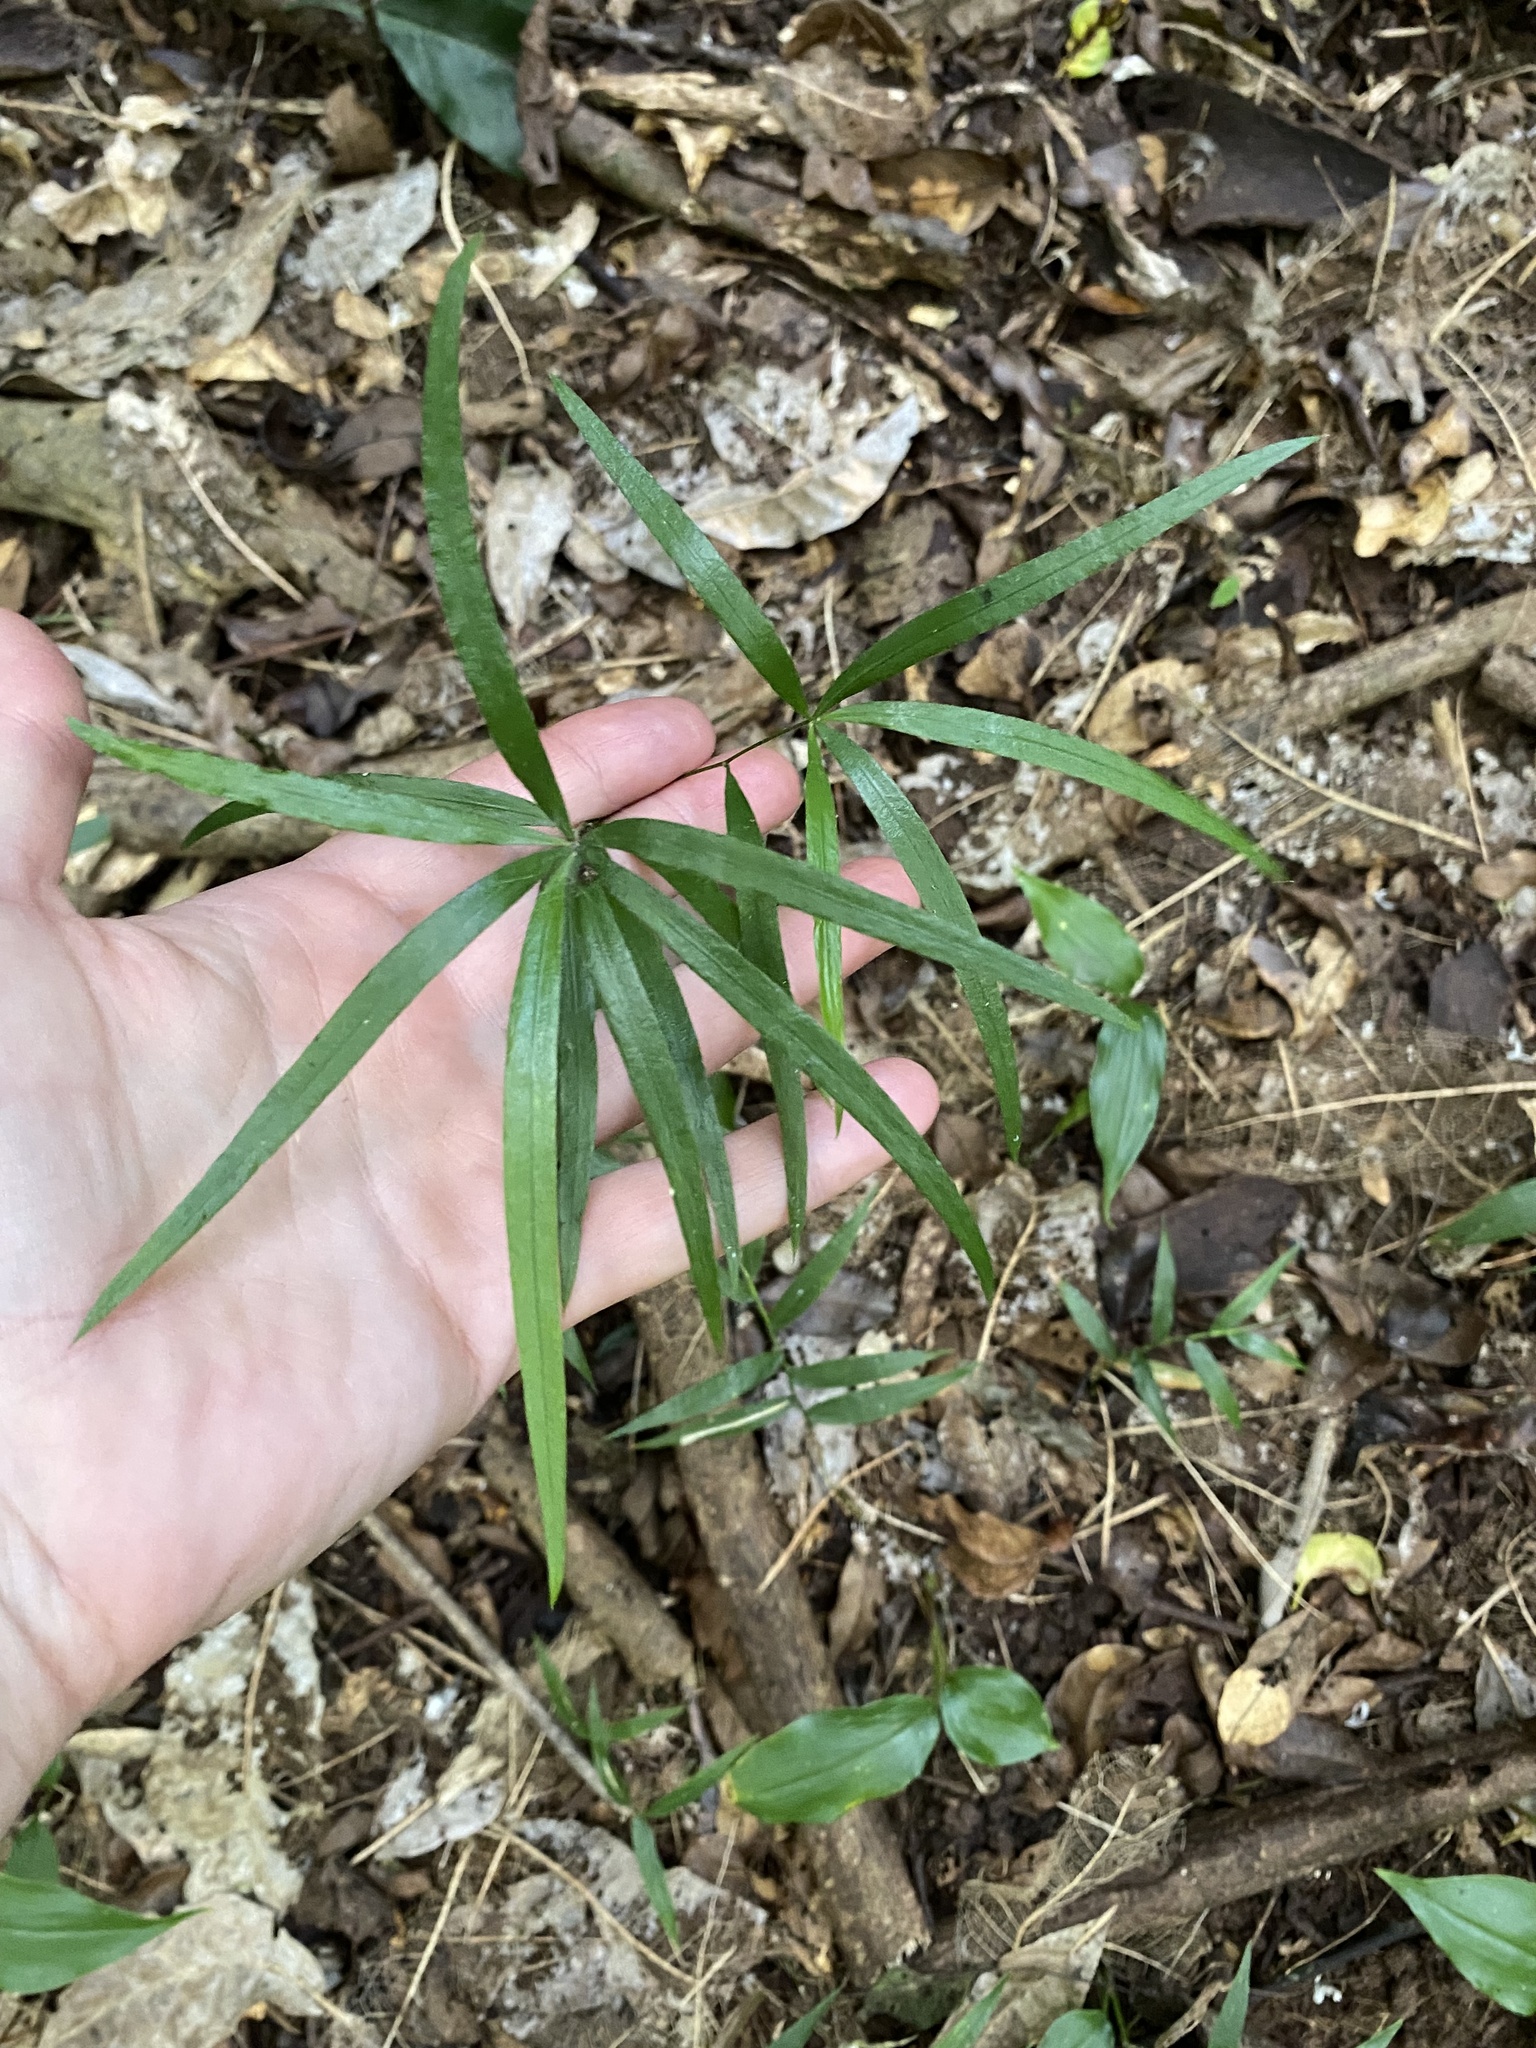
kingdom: Plantae
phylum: Tracheophyta
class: Liliopsida
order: Asparagales
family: Asparagaceae
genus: Asparagus
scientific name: Asparagus falcatus
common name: Asparagus
